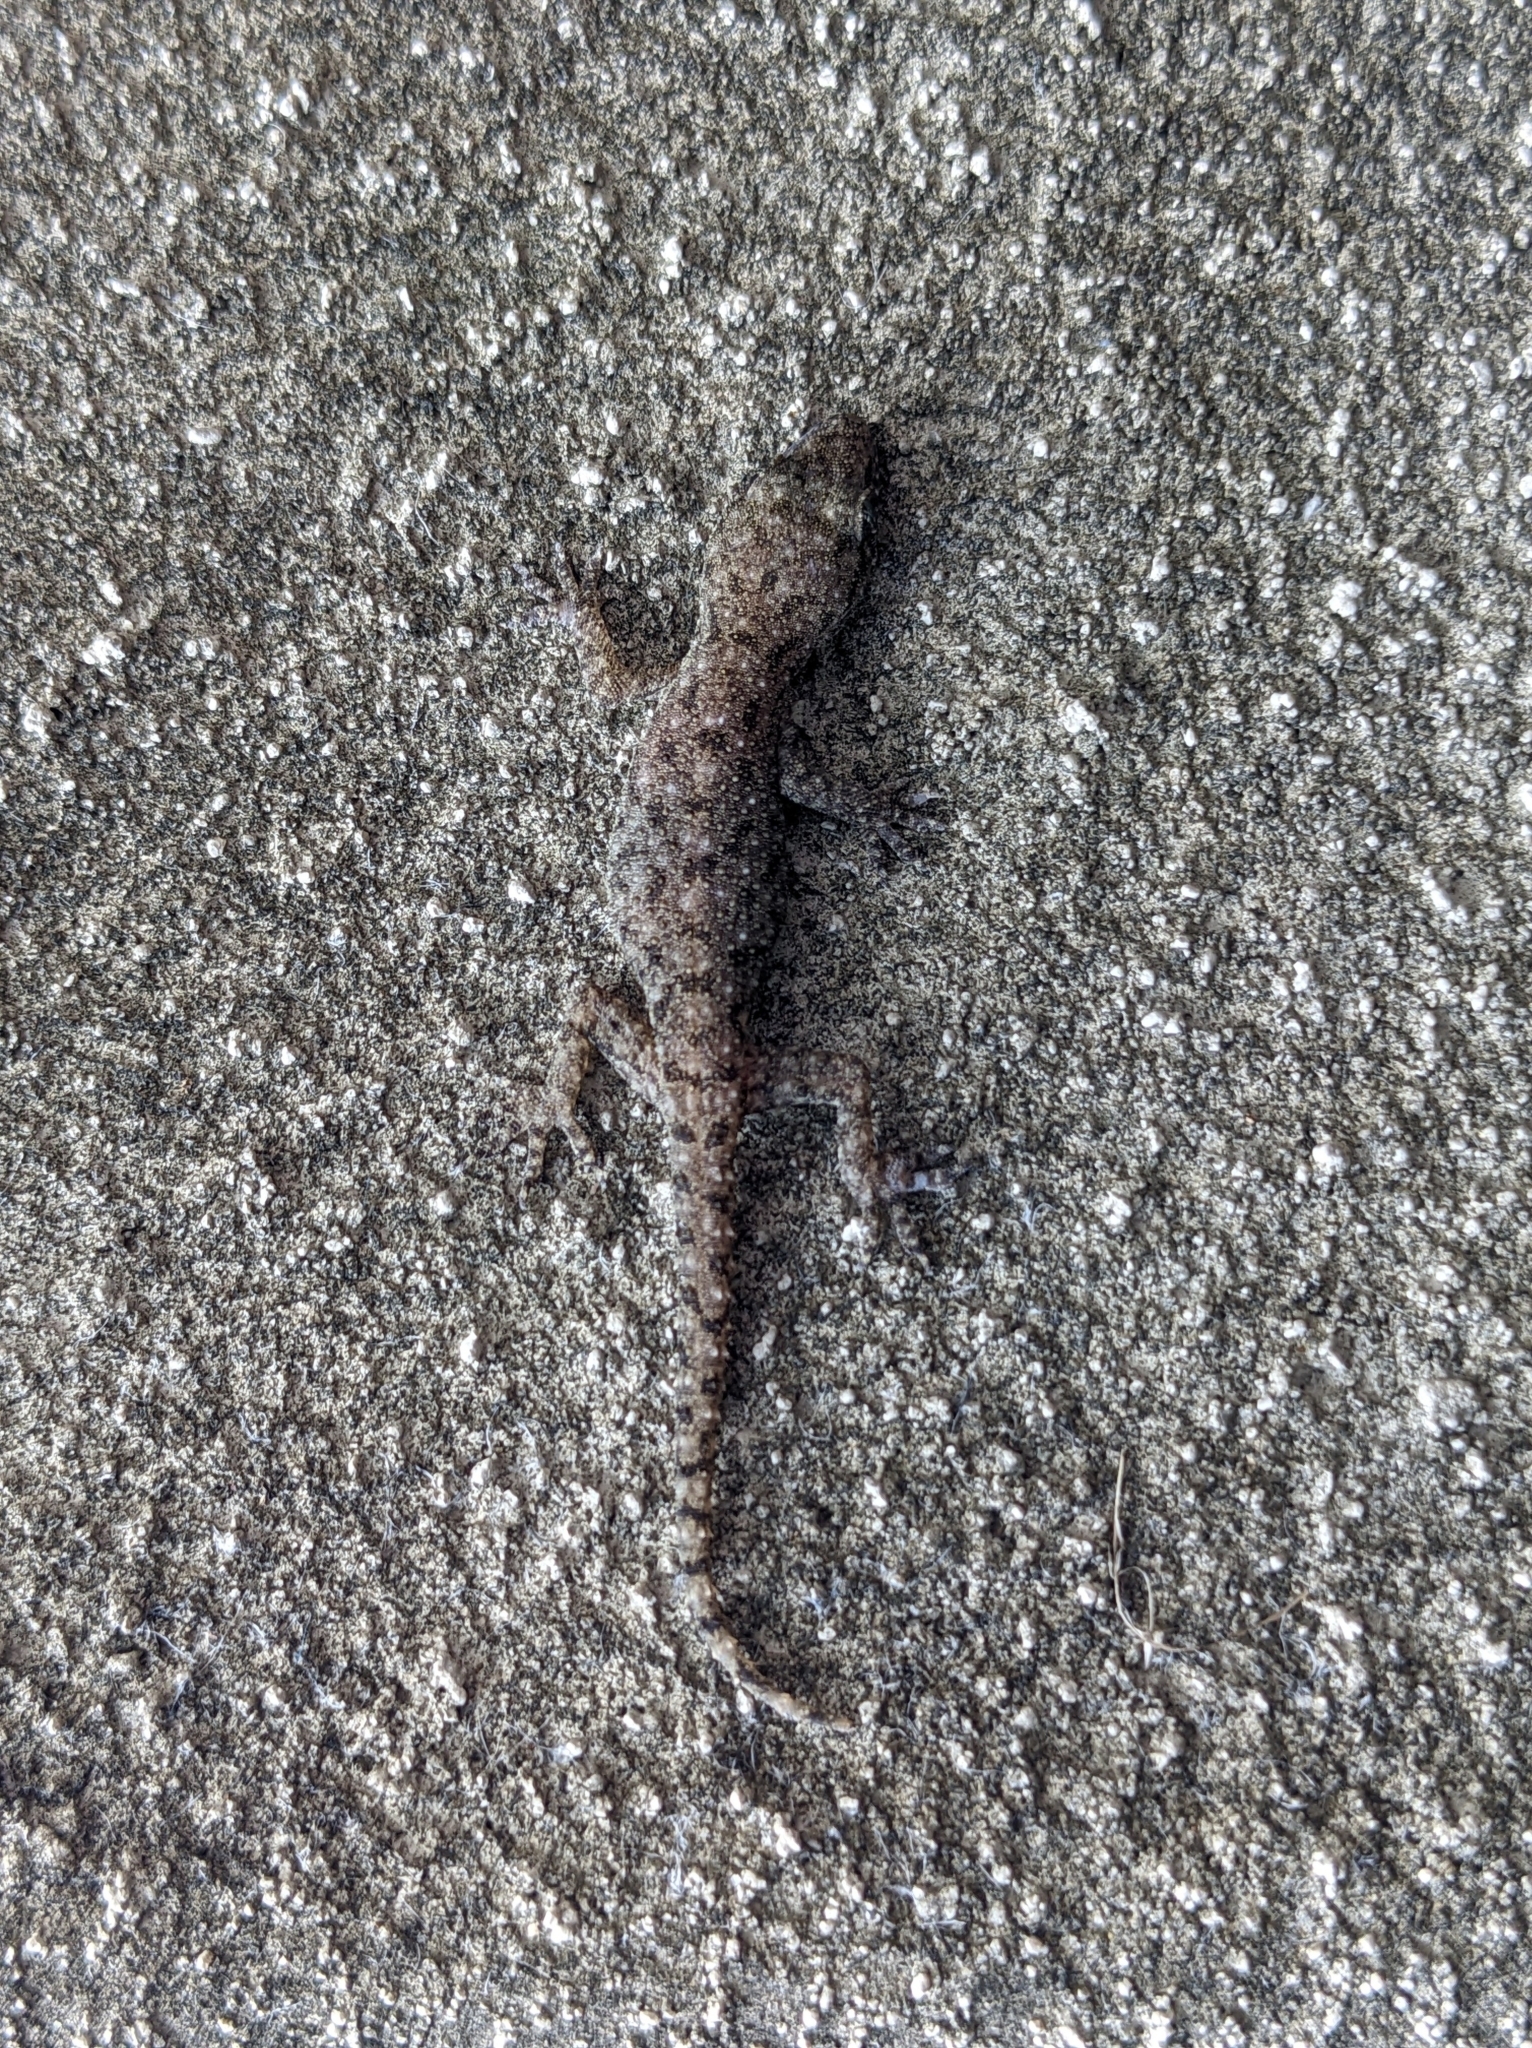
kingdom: Animalia
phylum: Chordata
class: Squamata
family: Gekkonidae
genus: Hemidactylus
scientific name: Hemidactylus parvimaculatus
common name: Spotted house gecko
